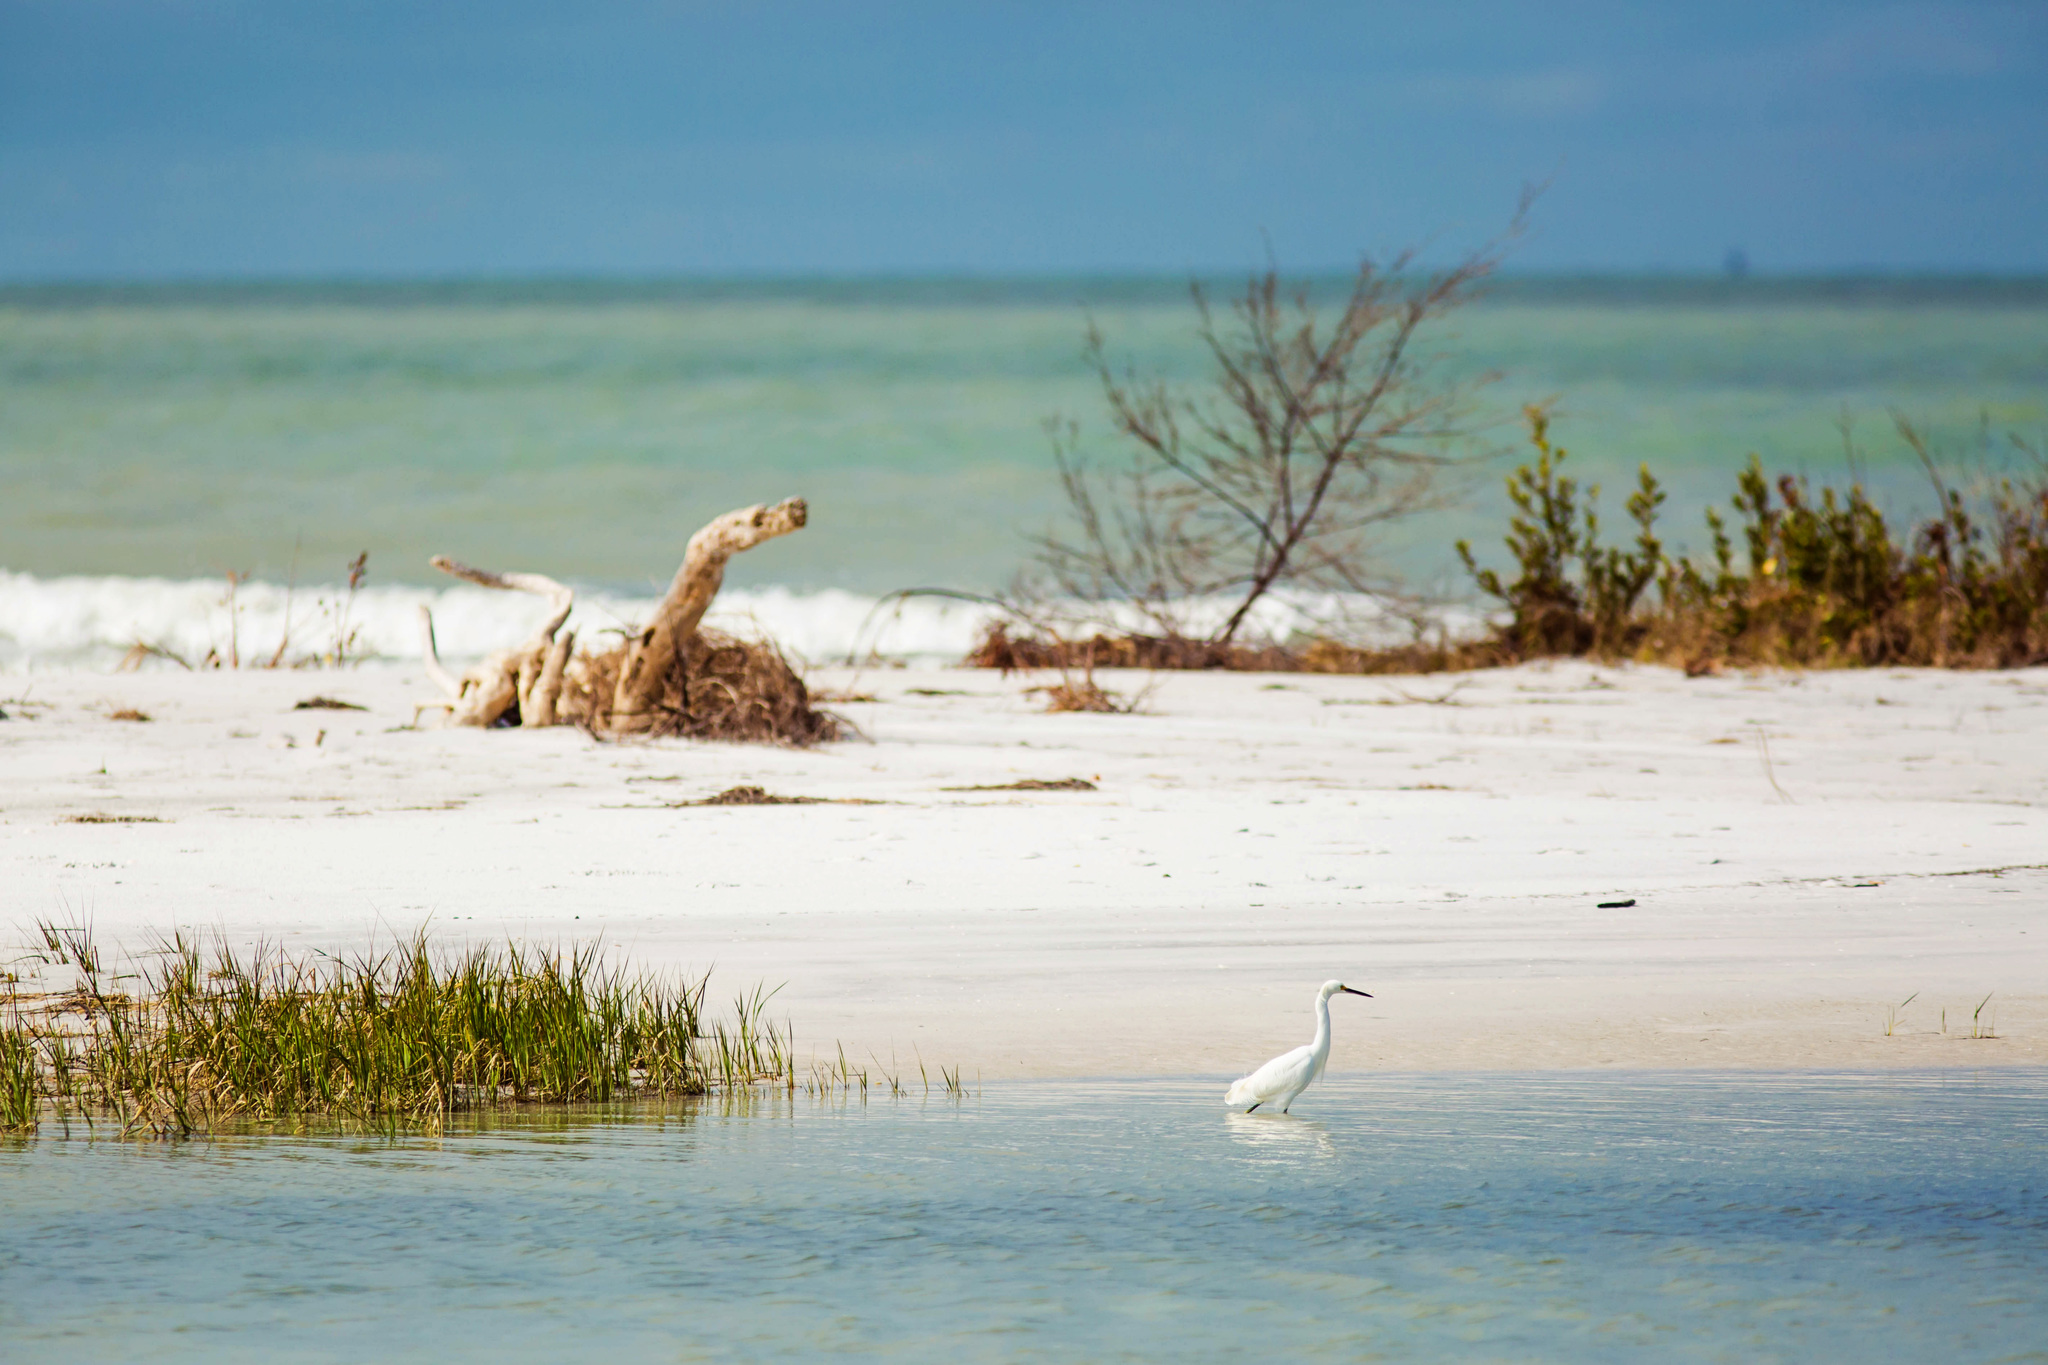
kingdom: Animalia
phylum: Chordata
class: Aves
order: Pelecaniformes
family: Ardeidae
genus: Egretta
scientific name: Egretta thula
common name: Snowy egret
